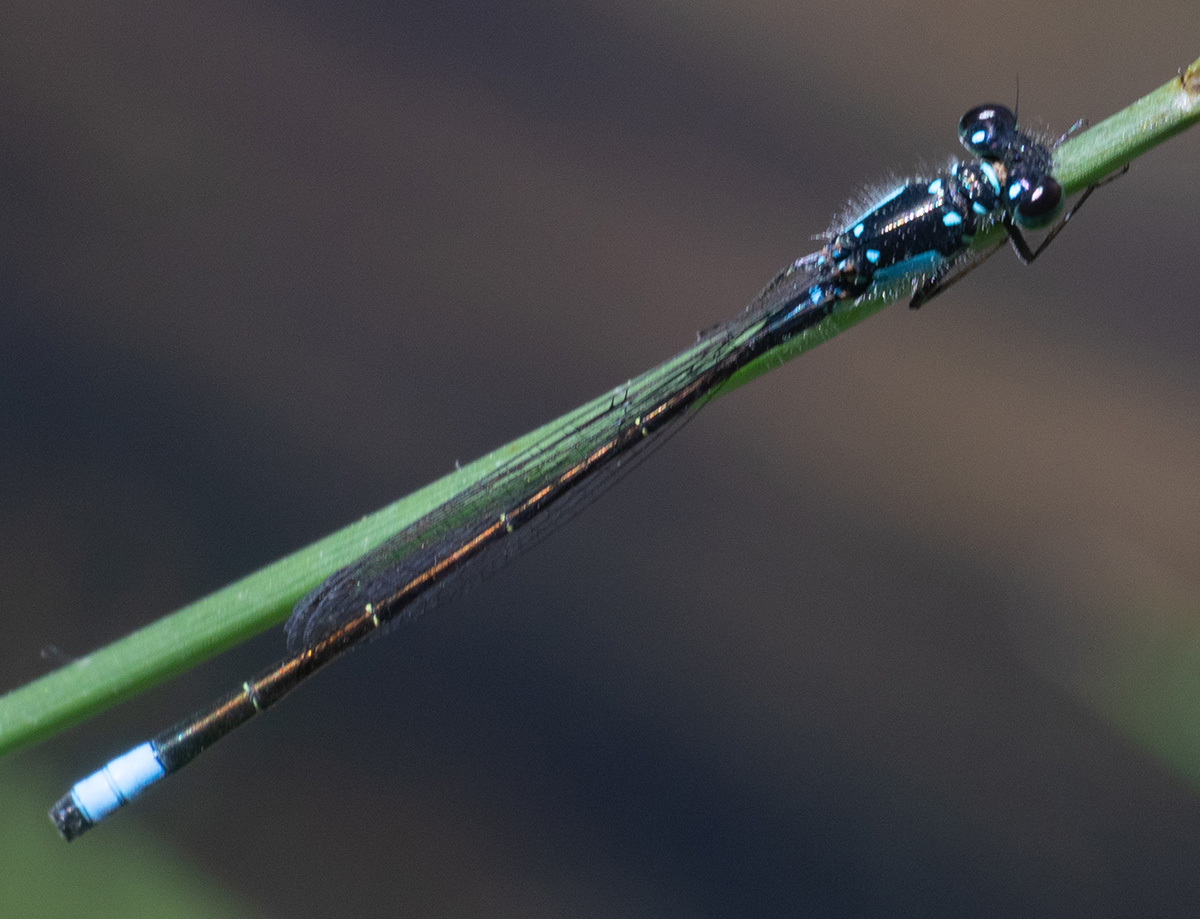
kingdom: Animalia
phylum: Arthropoda
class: Insecta
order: Odonata
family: Coenagrionidae
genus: Ischnura
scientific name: Ischnura cervula
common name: Pacific forktail
